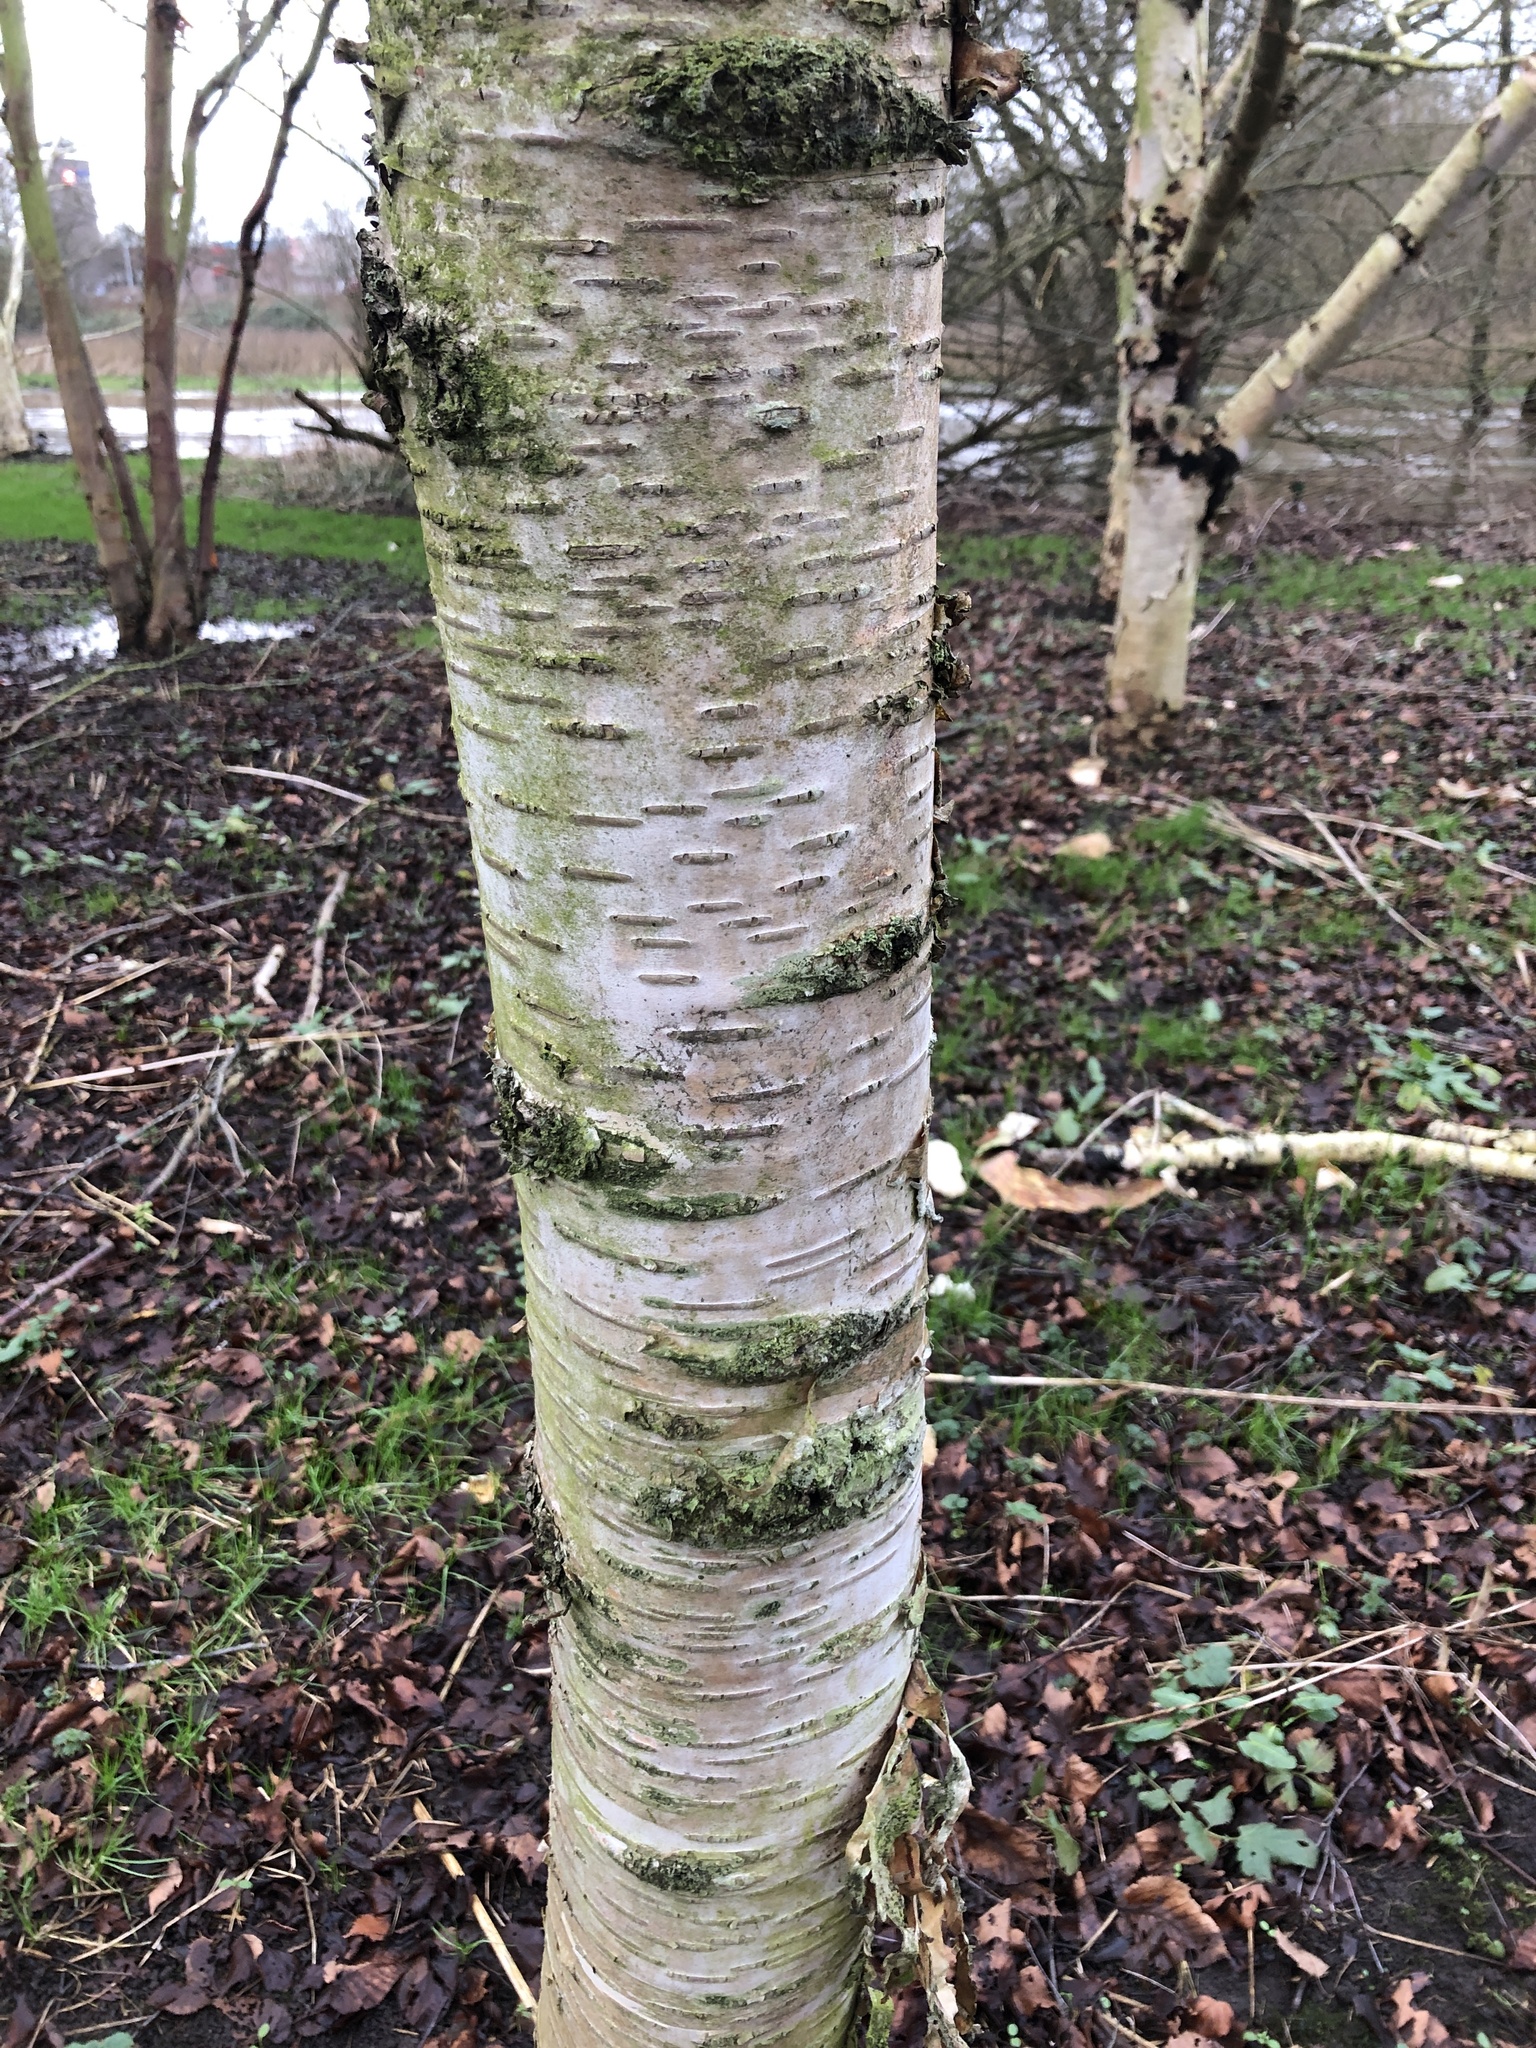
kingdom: Plantae
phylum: Tracheophyta
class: Magnoliopsida
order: Santalales
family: Viscaceae
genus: Viscum
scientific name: Viscum album
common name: Mistletoe
